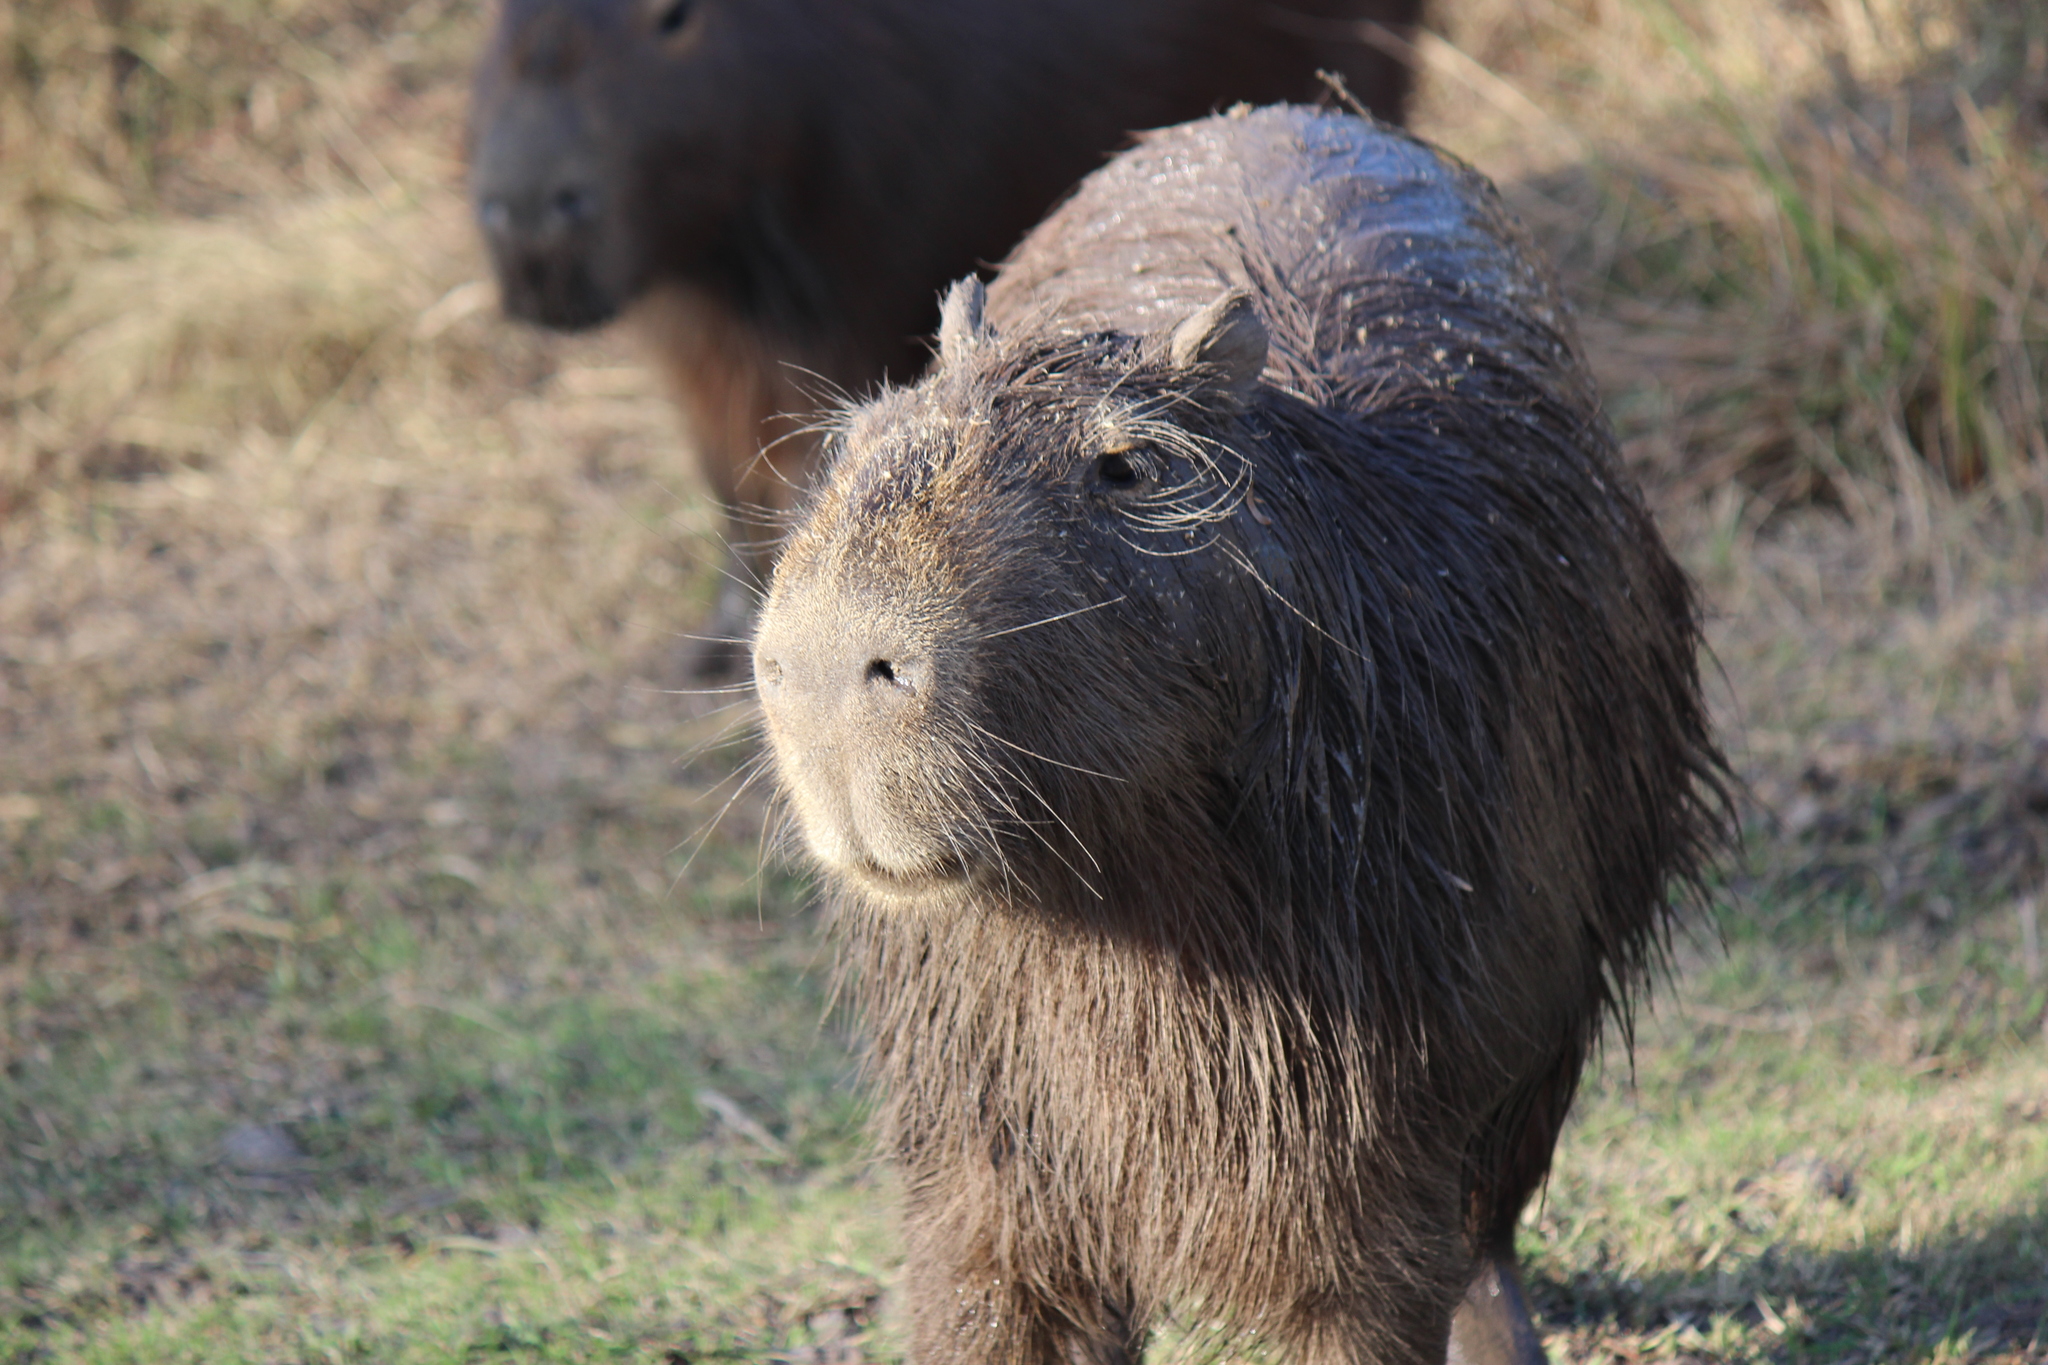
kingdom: Animalia
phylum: Chordata
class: Mammalia
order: Rodentia
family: Caviidae
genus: Hydrochoerus
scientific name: Hydrochoerus hydrochaeris
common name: Capybara
